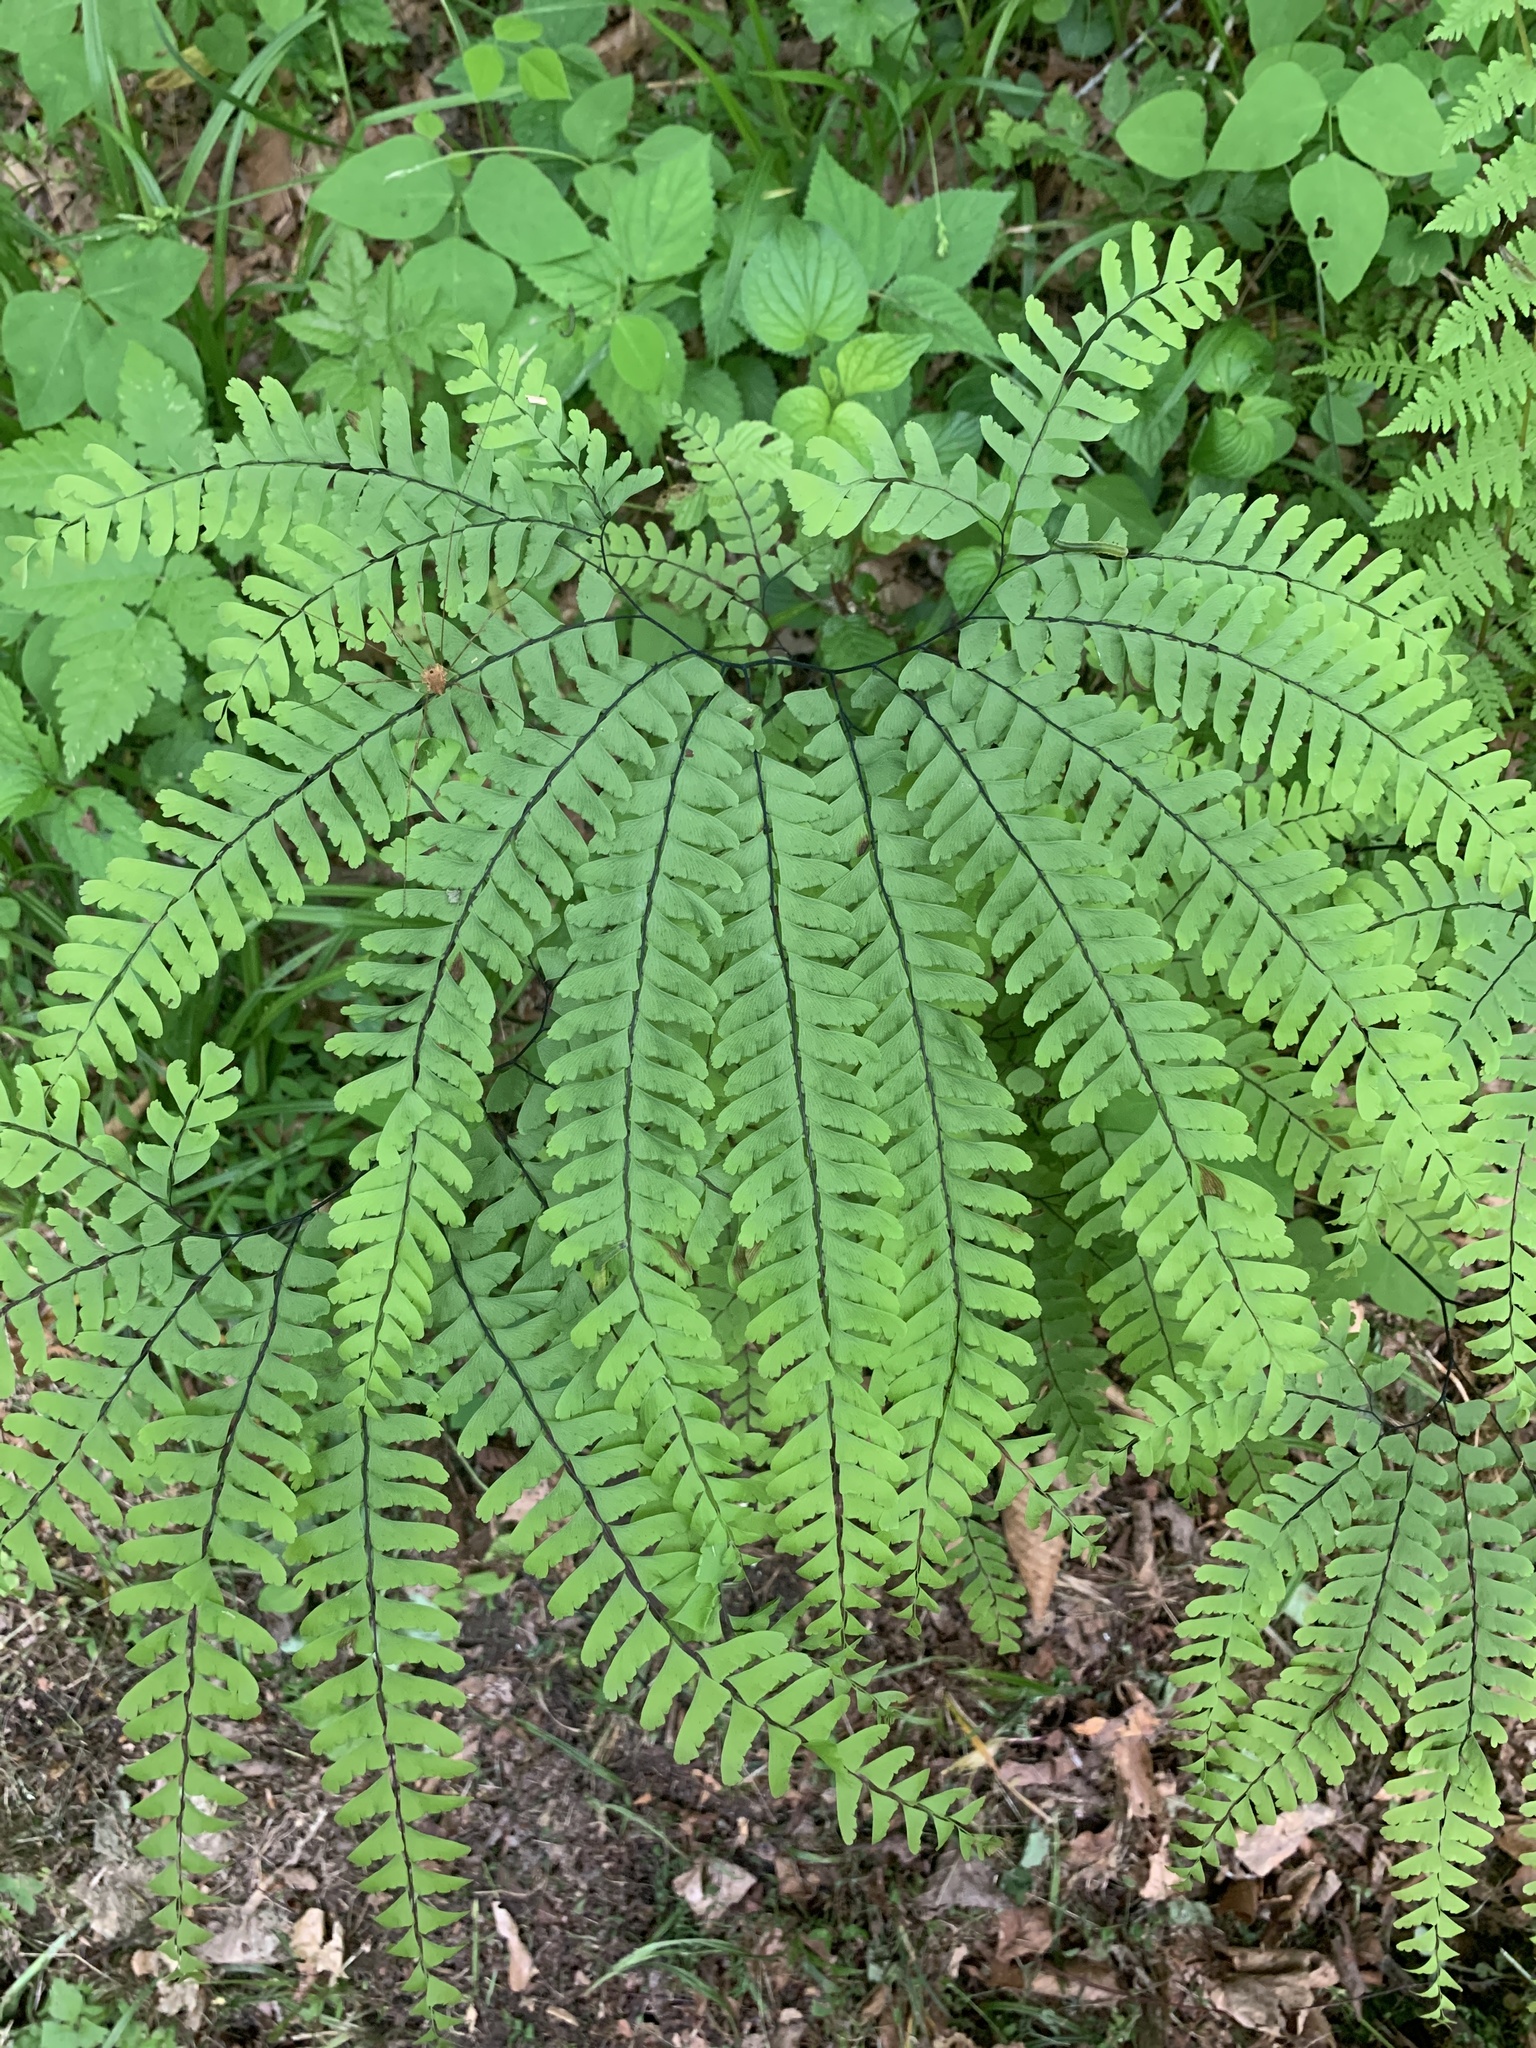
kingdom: Plantae
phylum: Tracheophyta
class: Polypodiopsida
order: Polypodiales
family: Pteridaceae
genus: Adiantum
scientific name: Adiantum pedatum
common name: Five-finger fern
